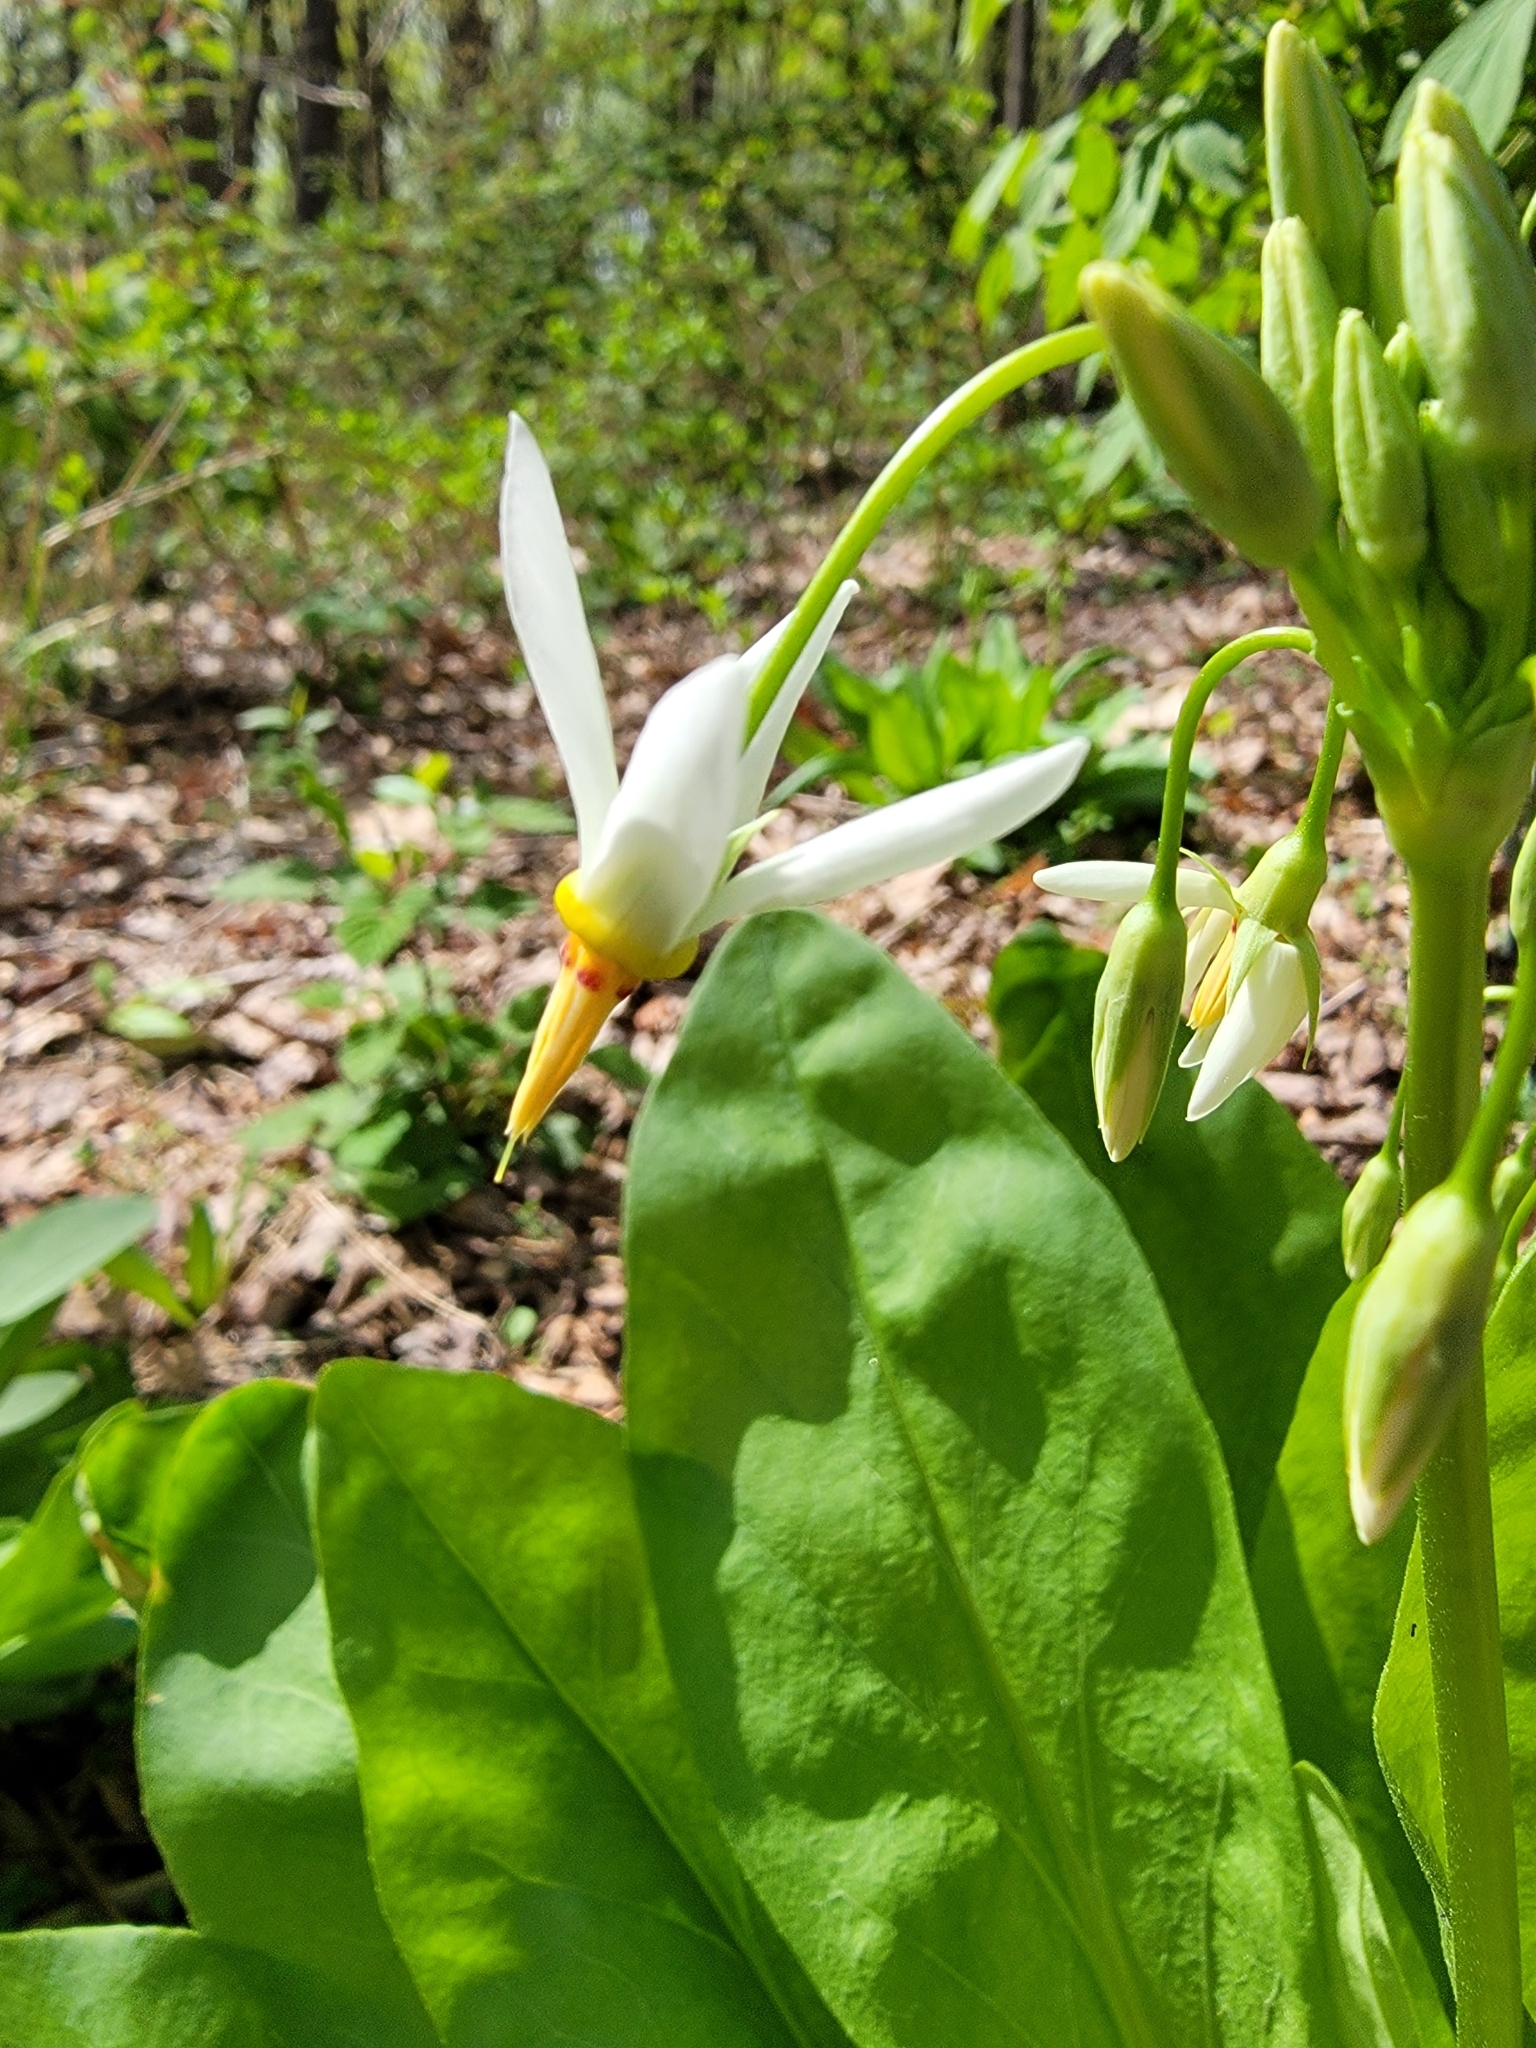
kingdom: Plantae
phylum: Tracheophyta
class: Magnoliopsida
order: Ericales
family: Primulaceae
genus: Dodecatheon
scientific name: Dodecatheon meadia
